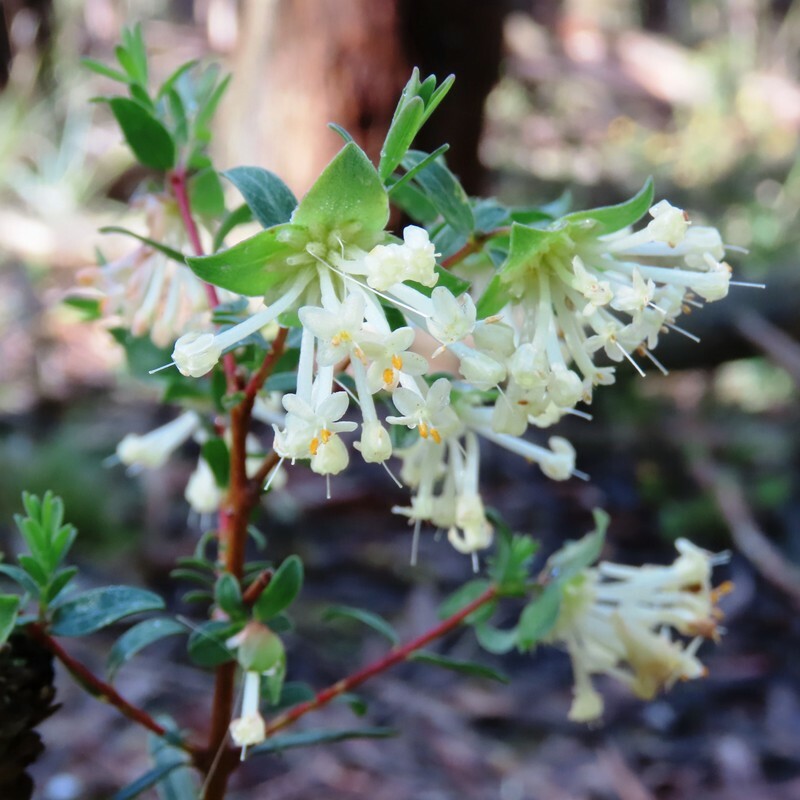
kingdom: Plantae
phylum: Tracheophyta
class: Magnoliopsida
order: Malvales
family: Thymelaeaceae
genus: Pimelea
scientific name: Pimelea linifolia
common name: Queen-of-the-bush
